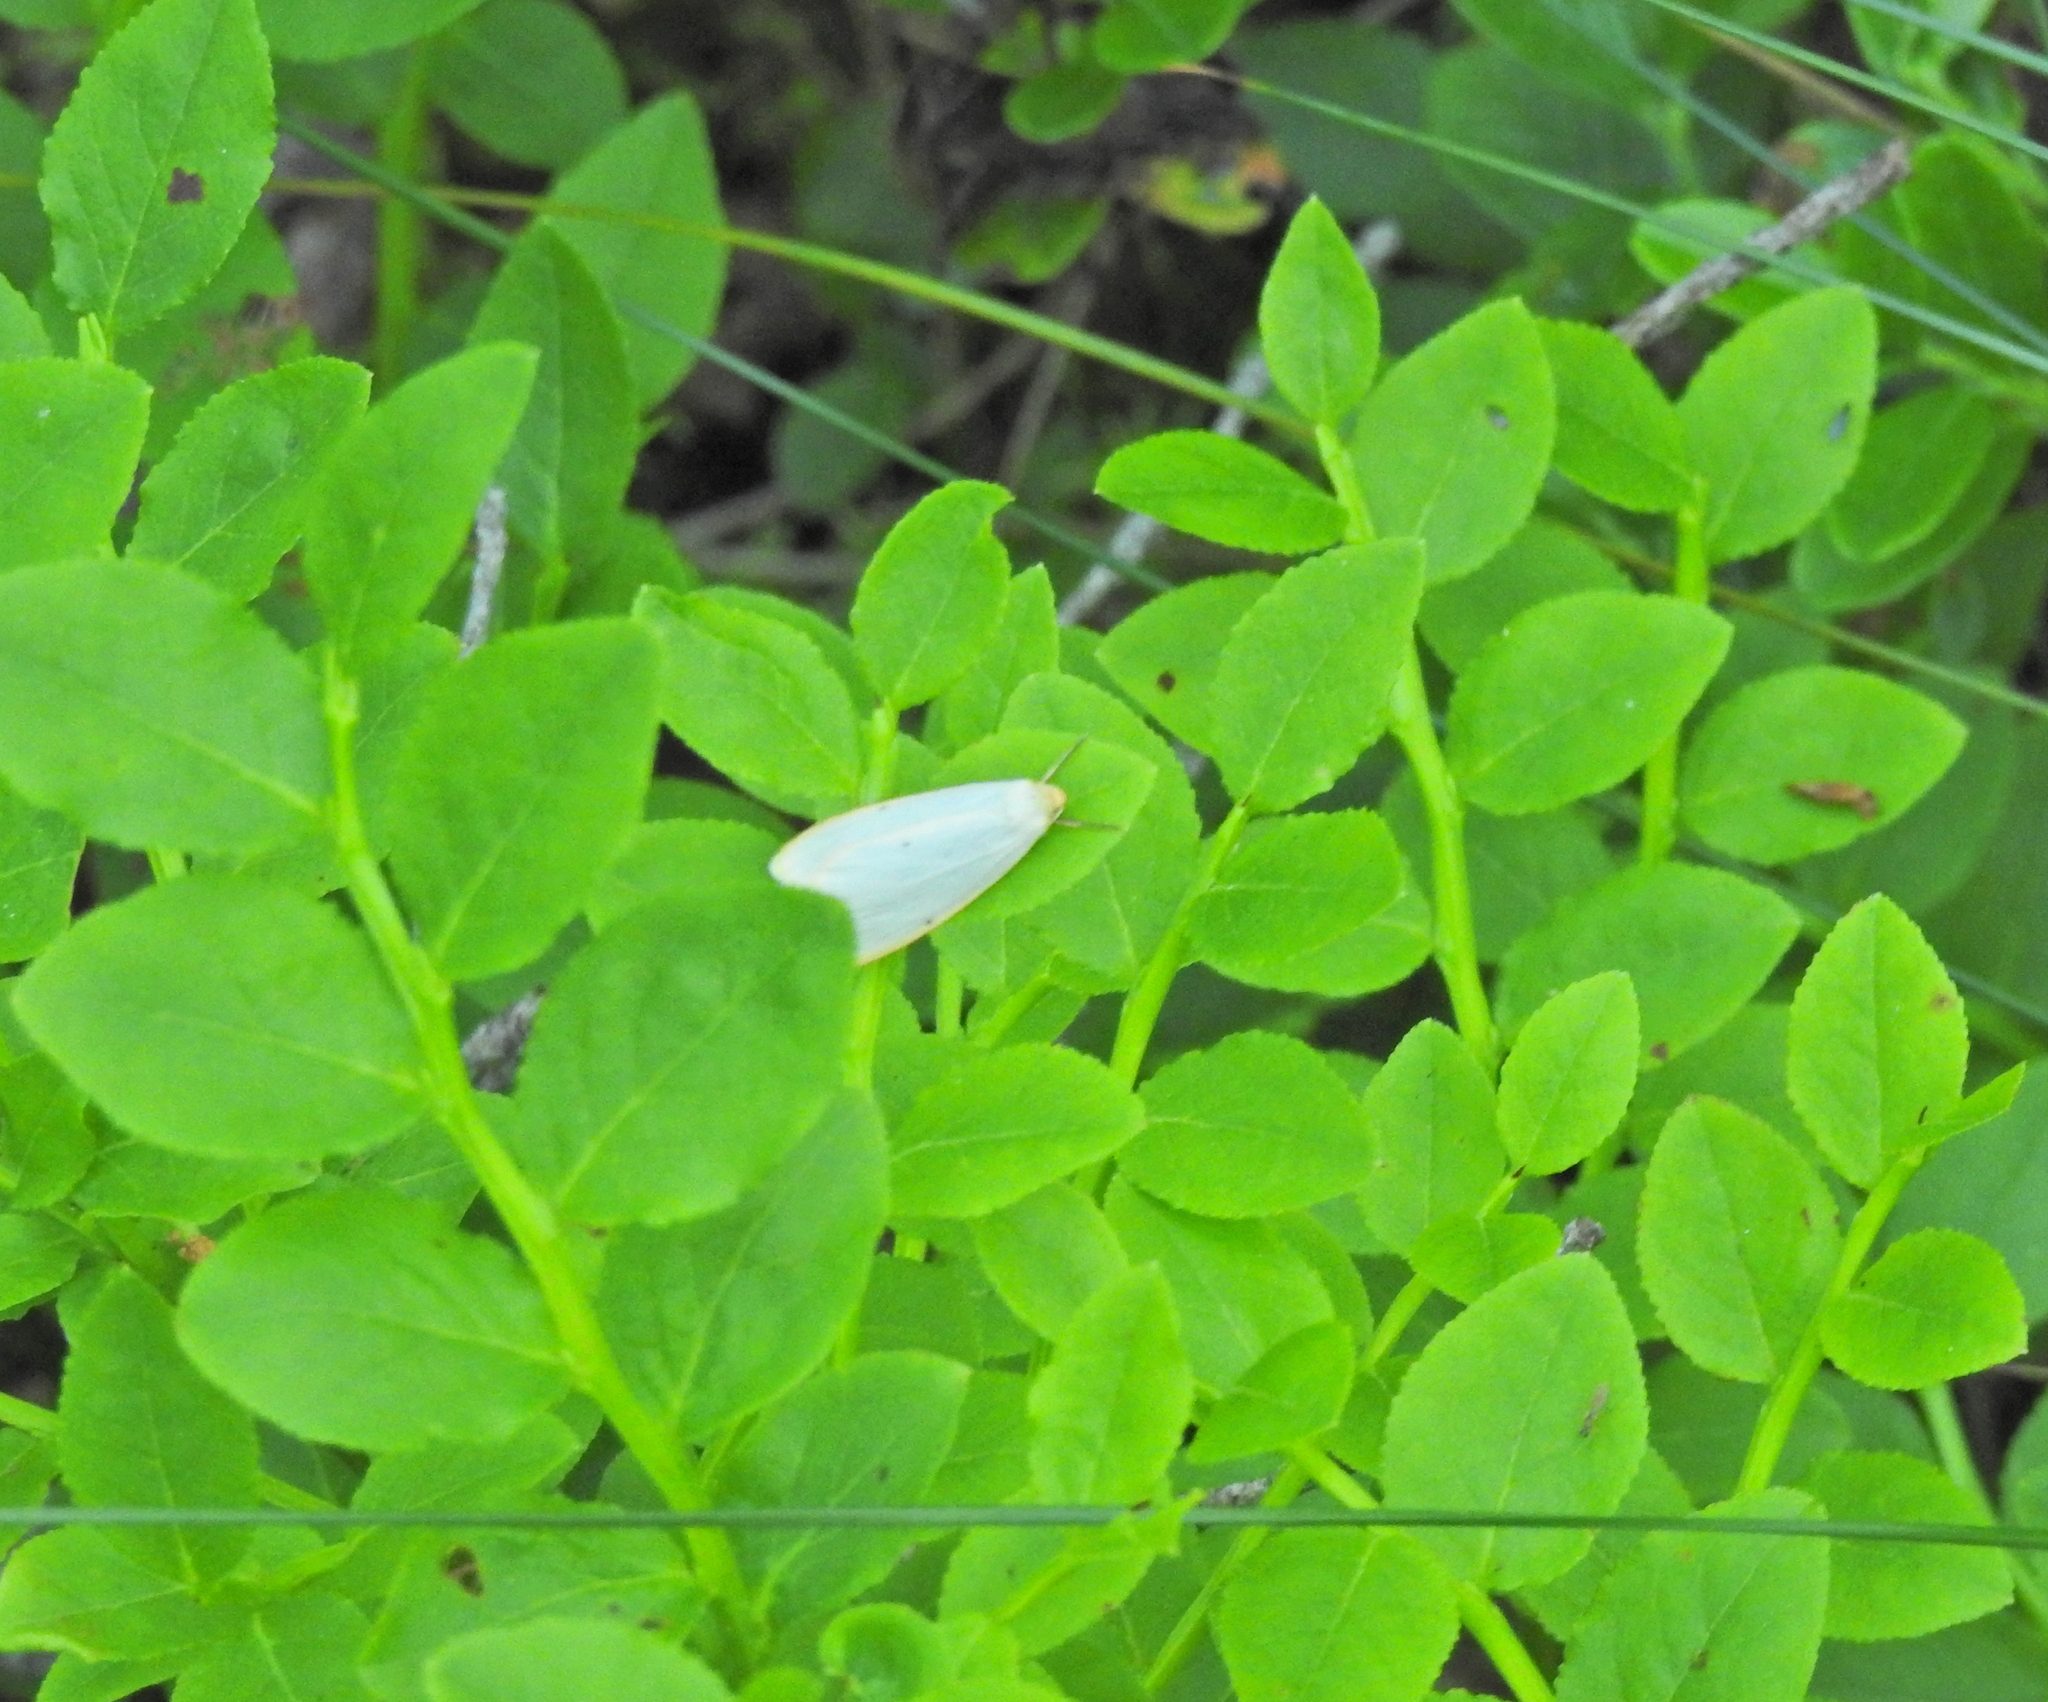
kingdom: Animalia
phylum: Arthropoda
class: Insecta
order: Lepidoptera
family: Erebidae
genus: Cybosia
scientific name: Cybosia mesomella
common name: Four-dotted footman
